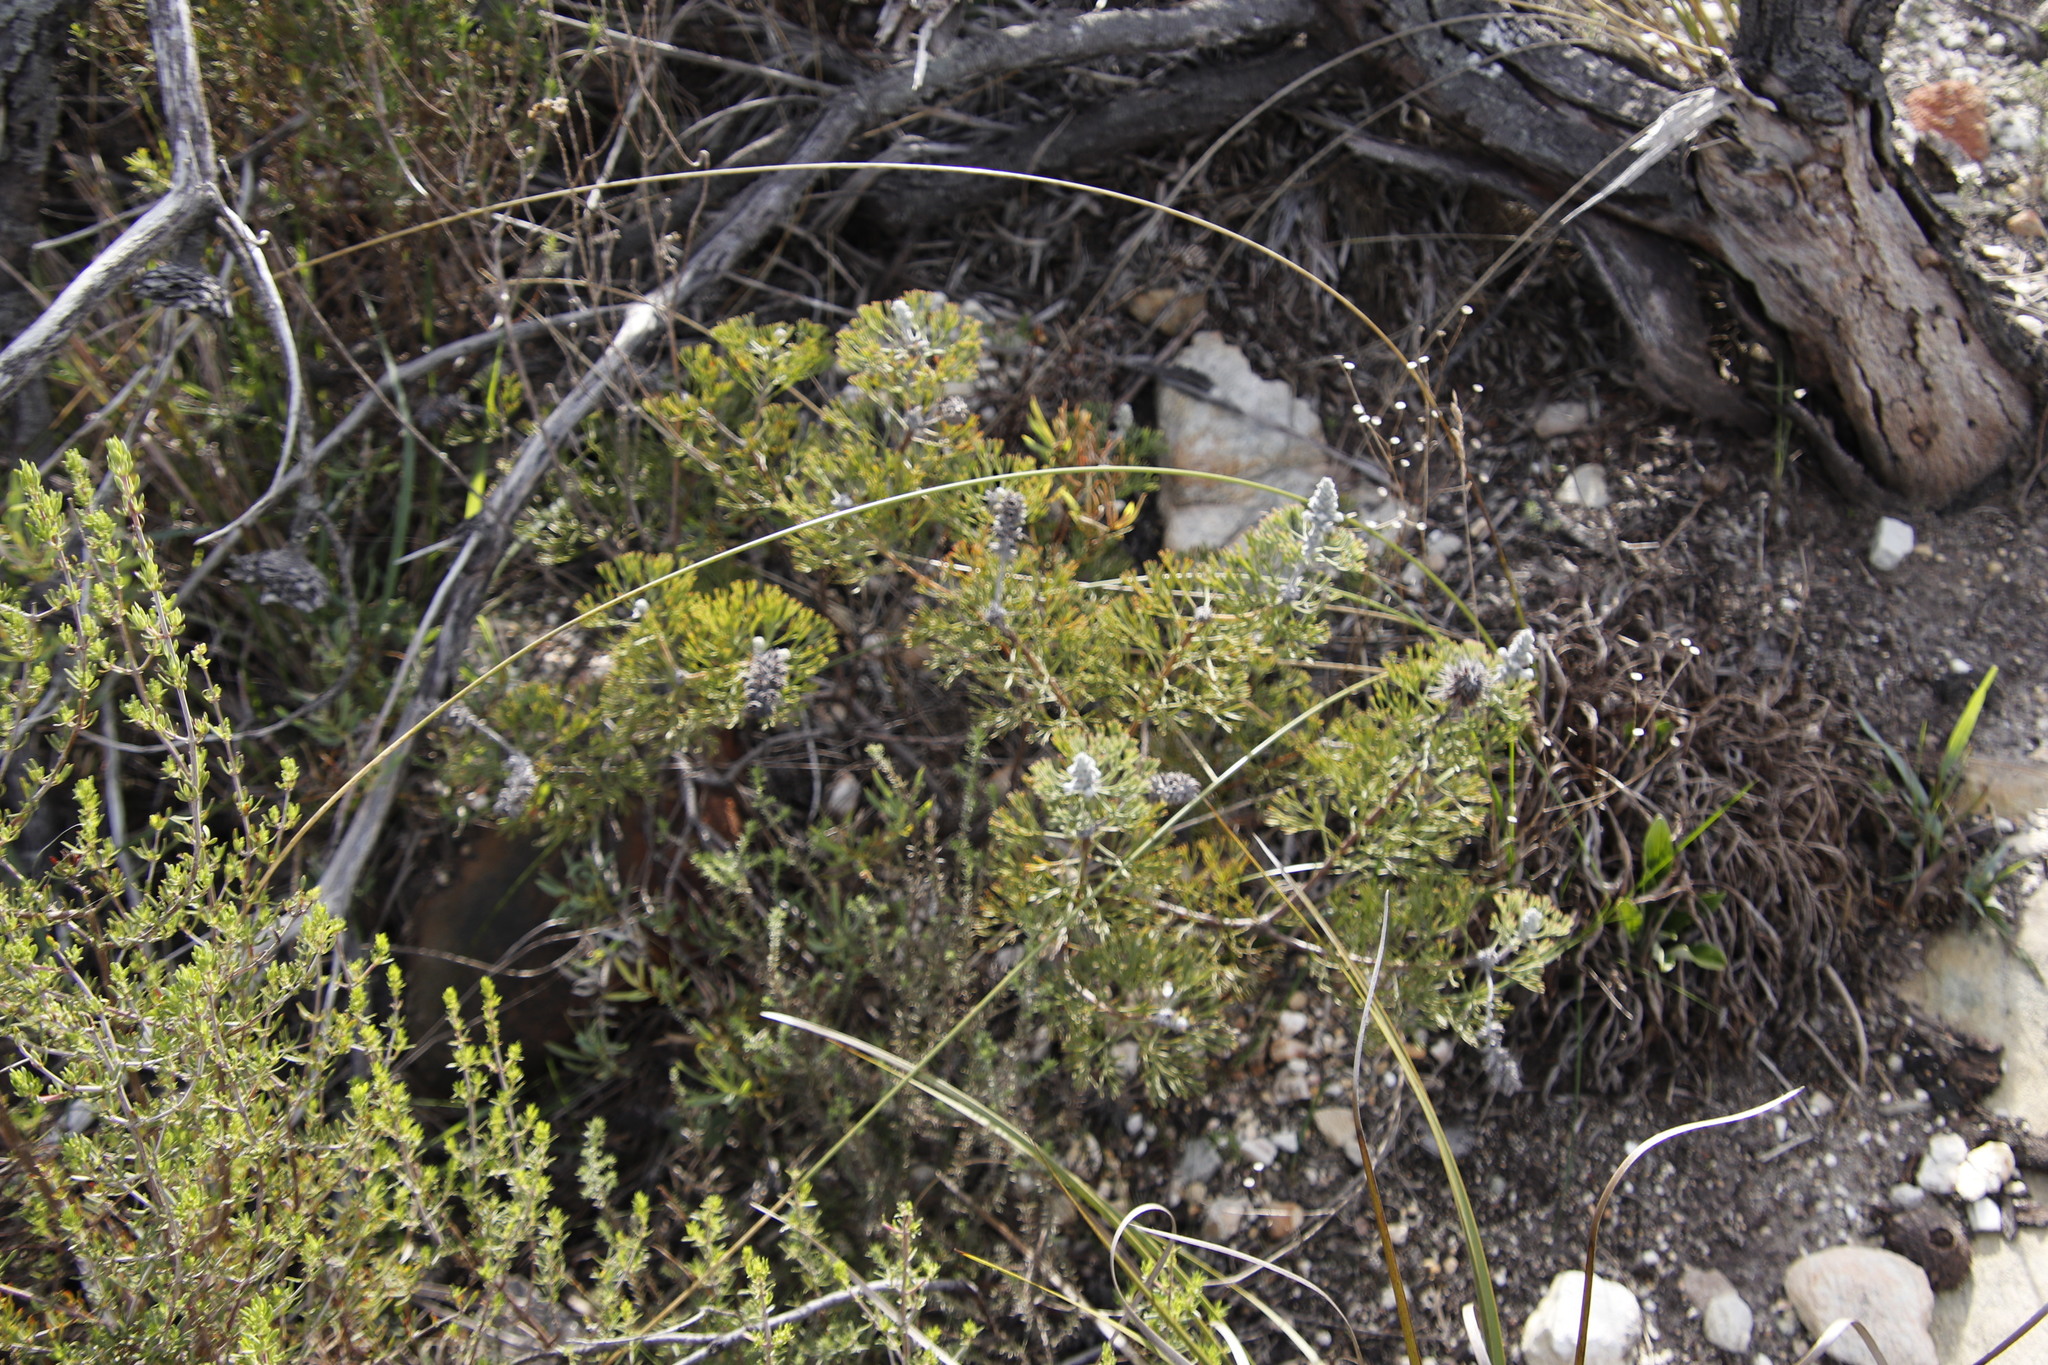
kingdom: Plantae
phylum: Tracheophyta
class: Magnoliopsida
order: Proteales
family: Proteaceae
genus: Paranomus
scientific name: Paranomus bolusii
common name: Overberg sceptre
